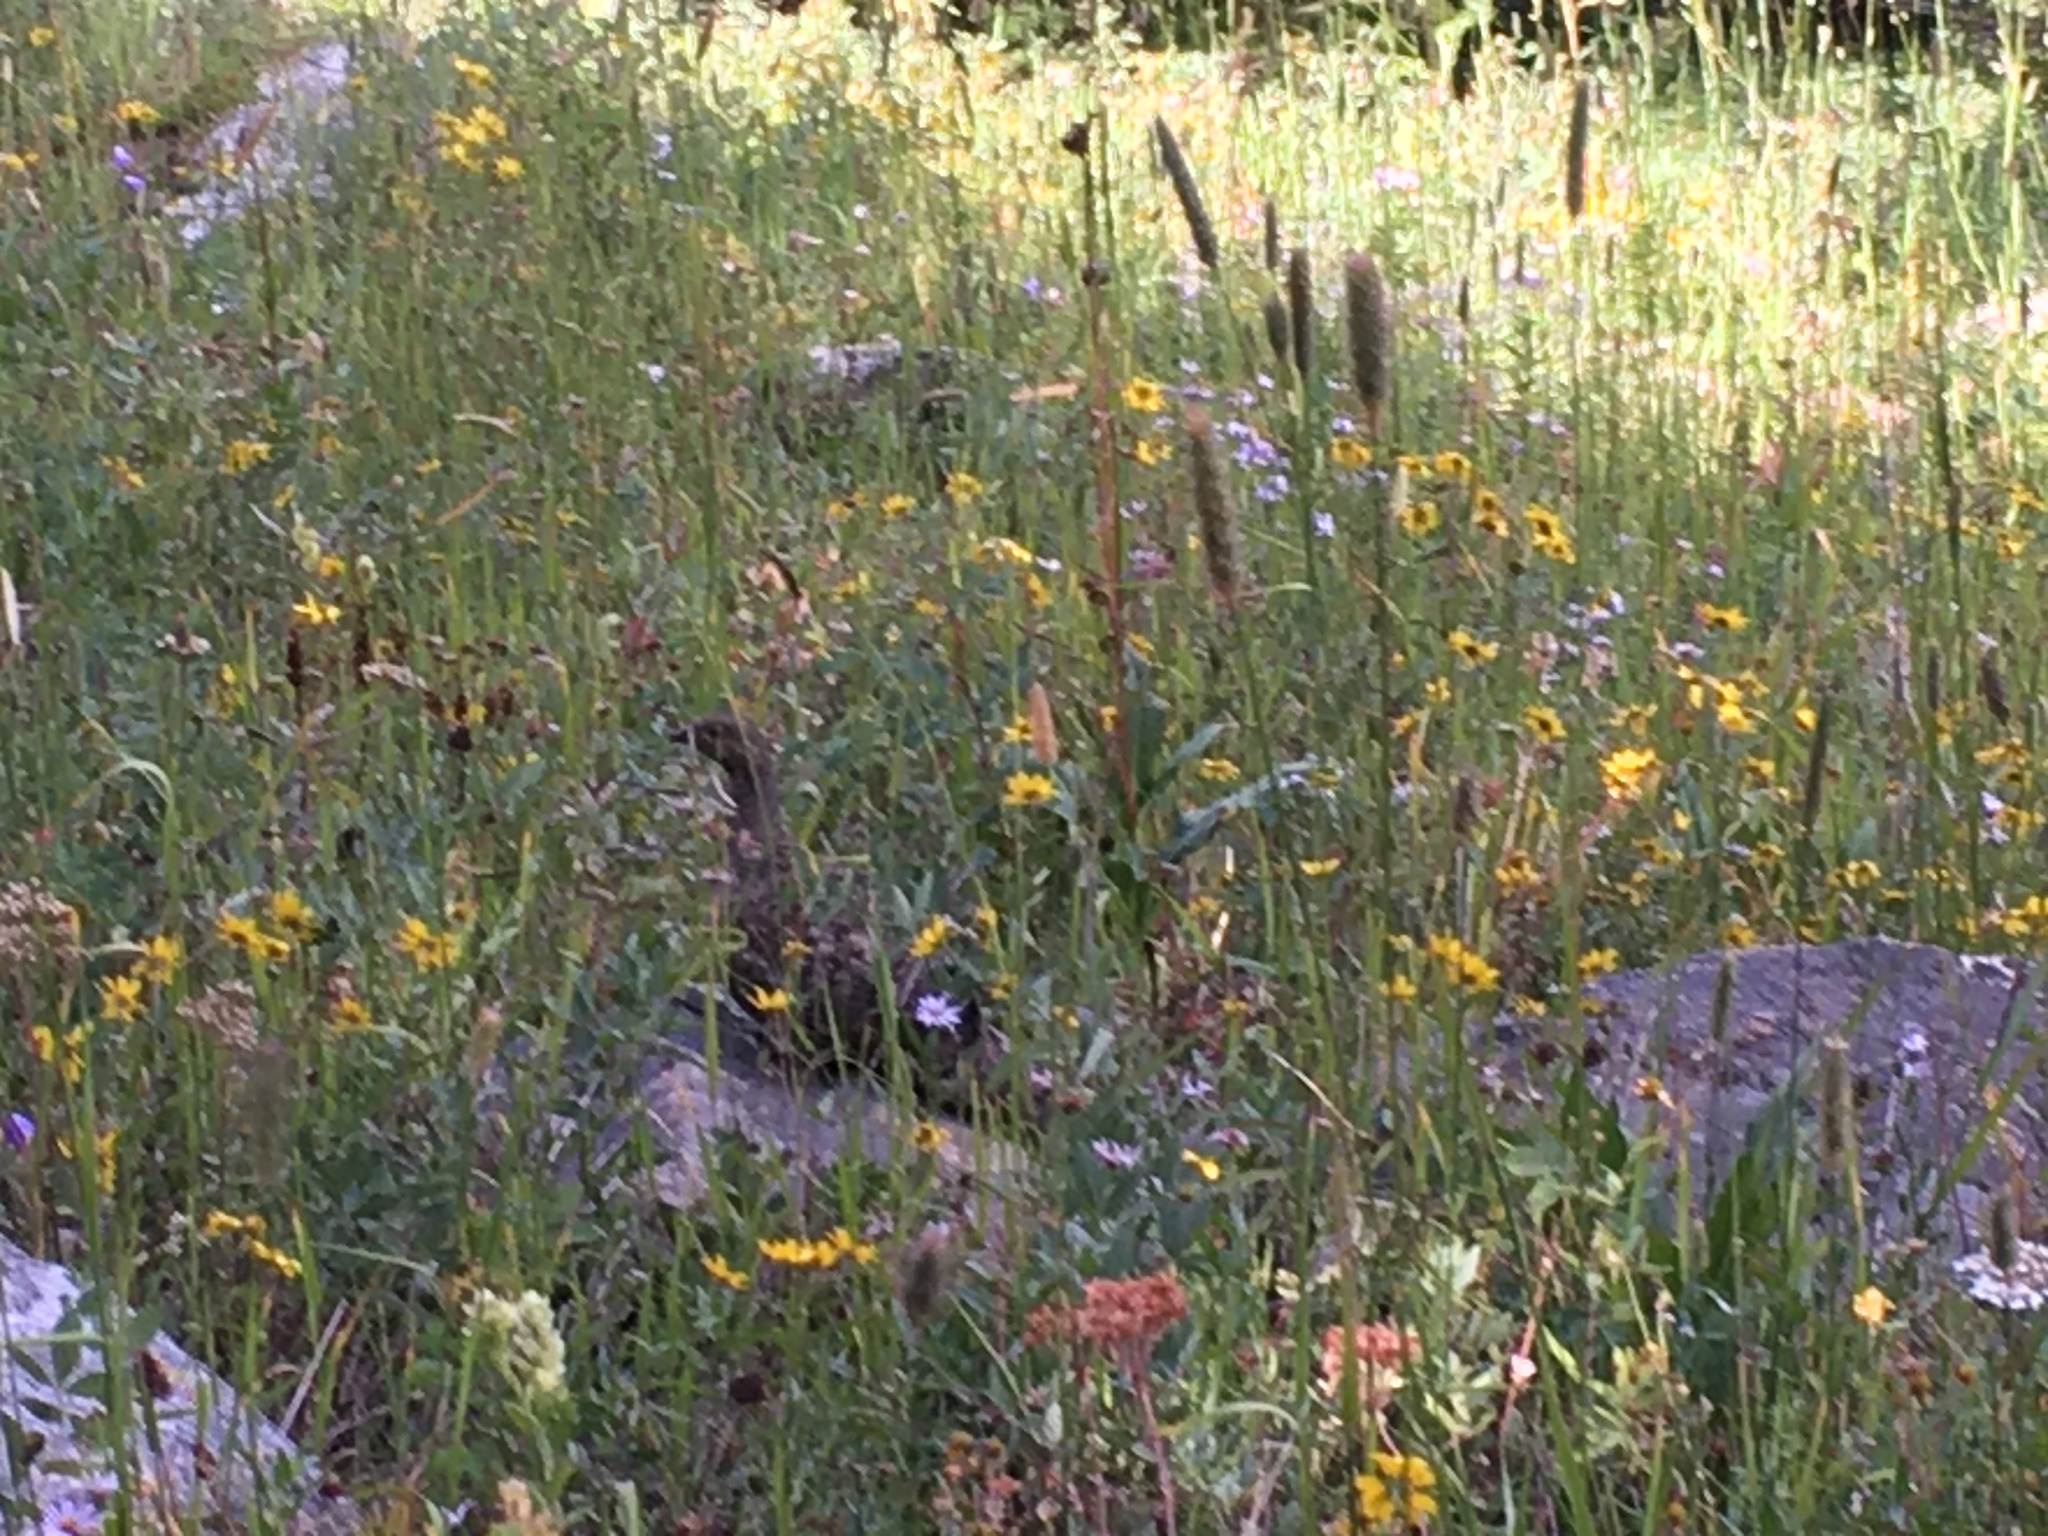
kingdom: Animalia
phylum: Chordata
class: Aves
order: Galliformes
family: Phasianidae
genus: Dendragapus
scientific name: Dendragapus obscurus
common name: Dusky grouse
